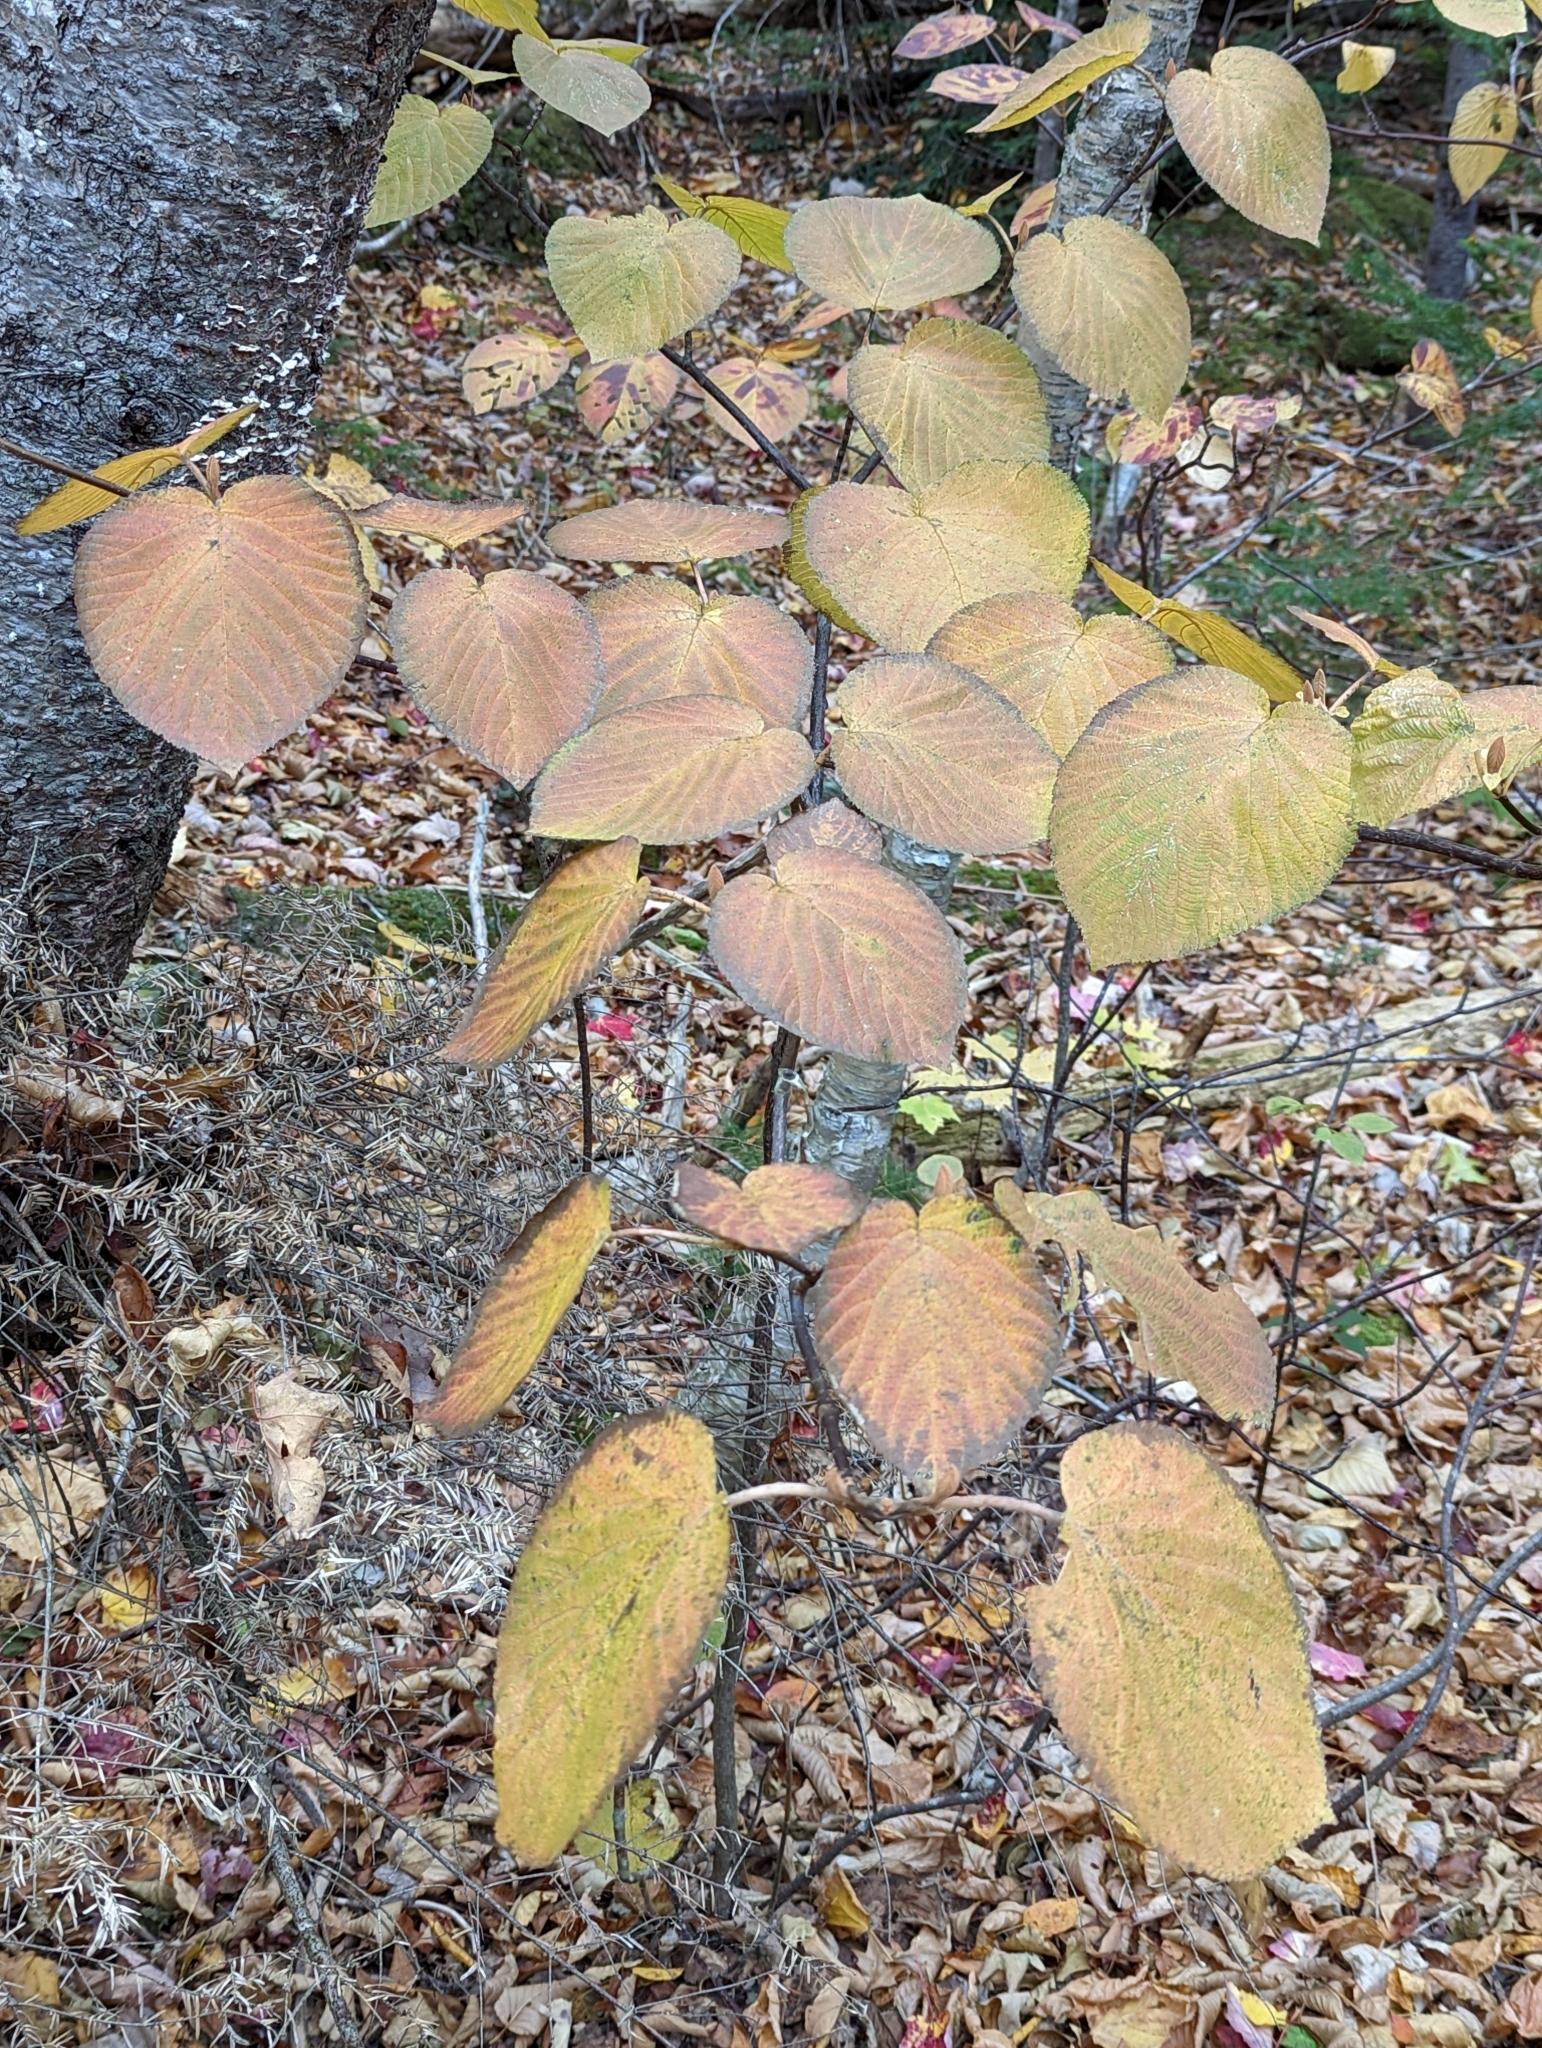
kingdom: Plantae
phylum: Tracheophyta
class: Magnoliopsida
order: Dipsacales
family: Viburnaceae
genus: Viburnum
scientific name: Viburnum lantanoides
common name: Hobblebush
